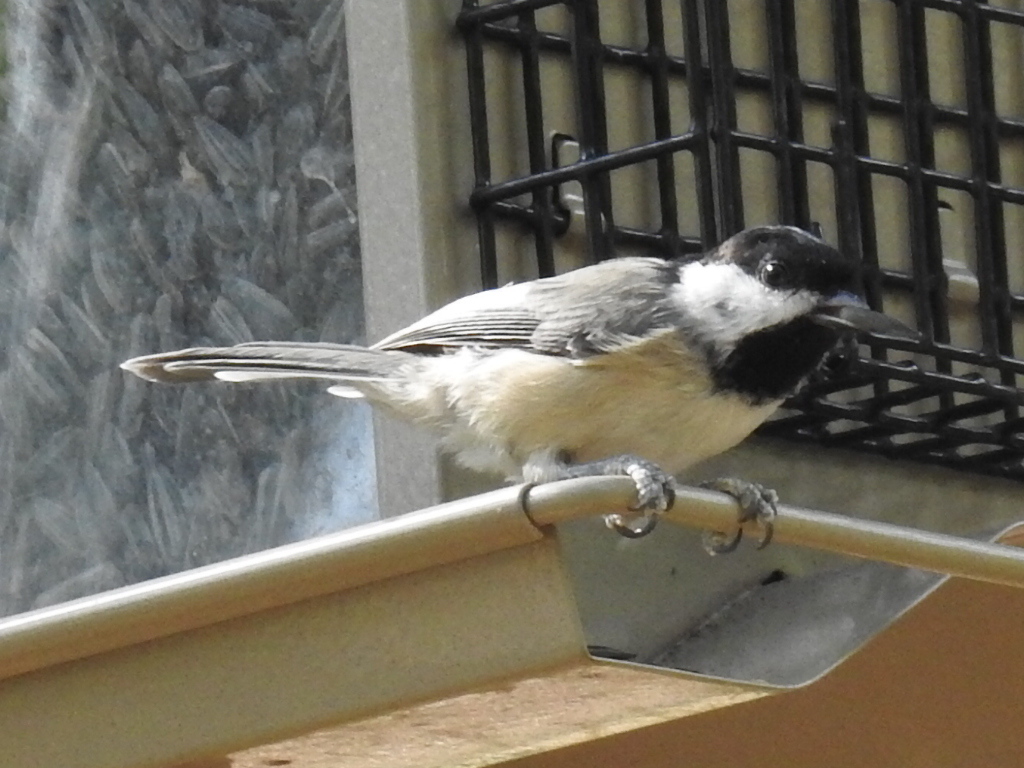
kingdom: Animalia
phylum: Chordata
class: Aves
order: Passeriformes
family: Paridae
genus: Poecile
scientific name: Poecile carolinensis
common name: Carolina chickadee
